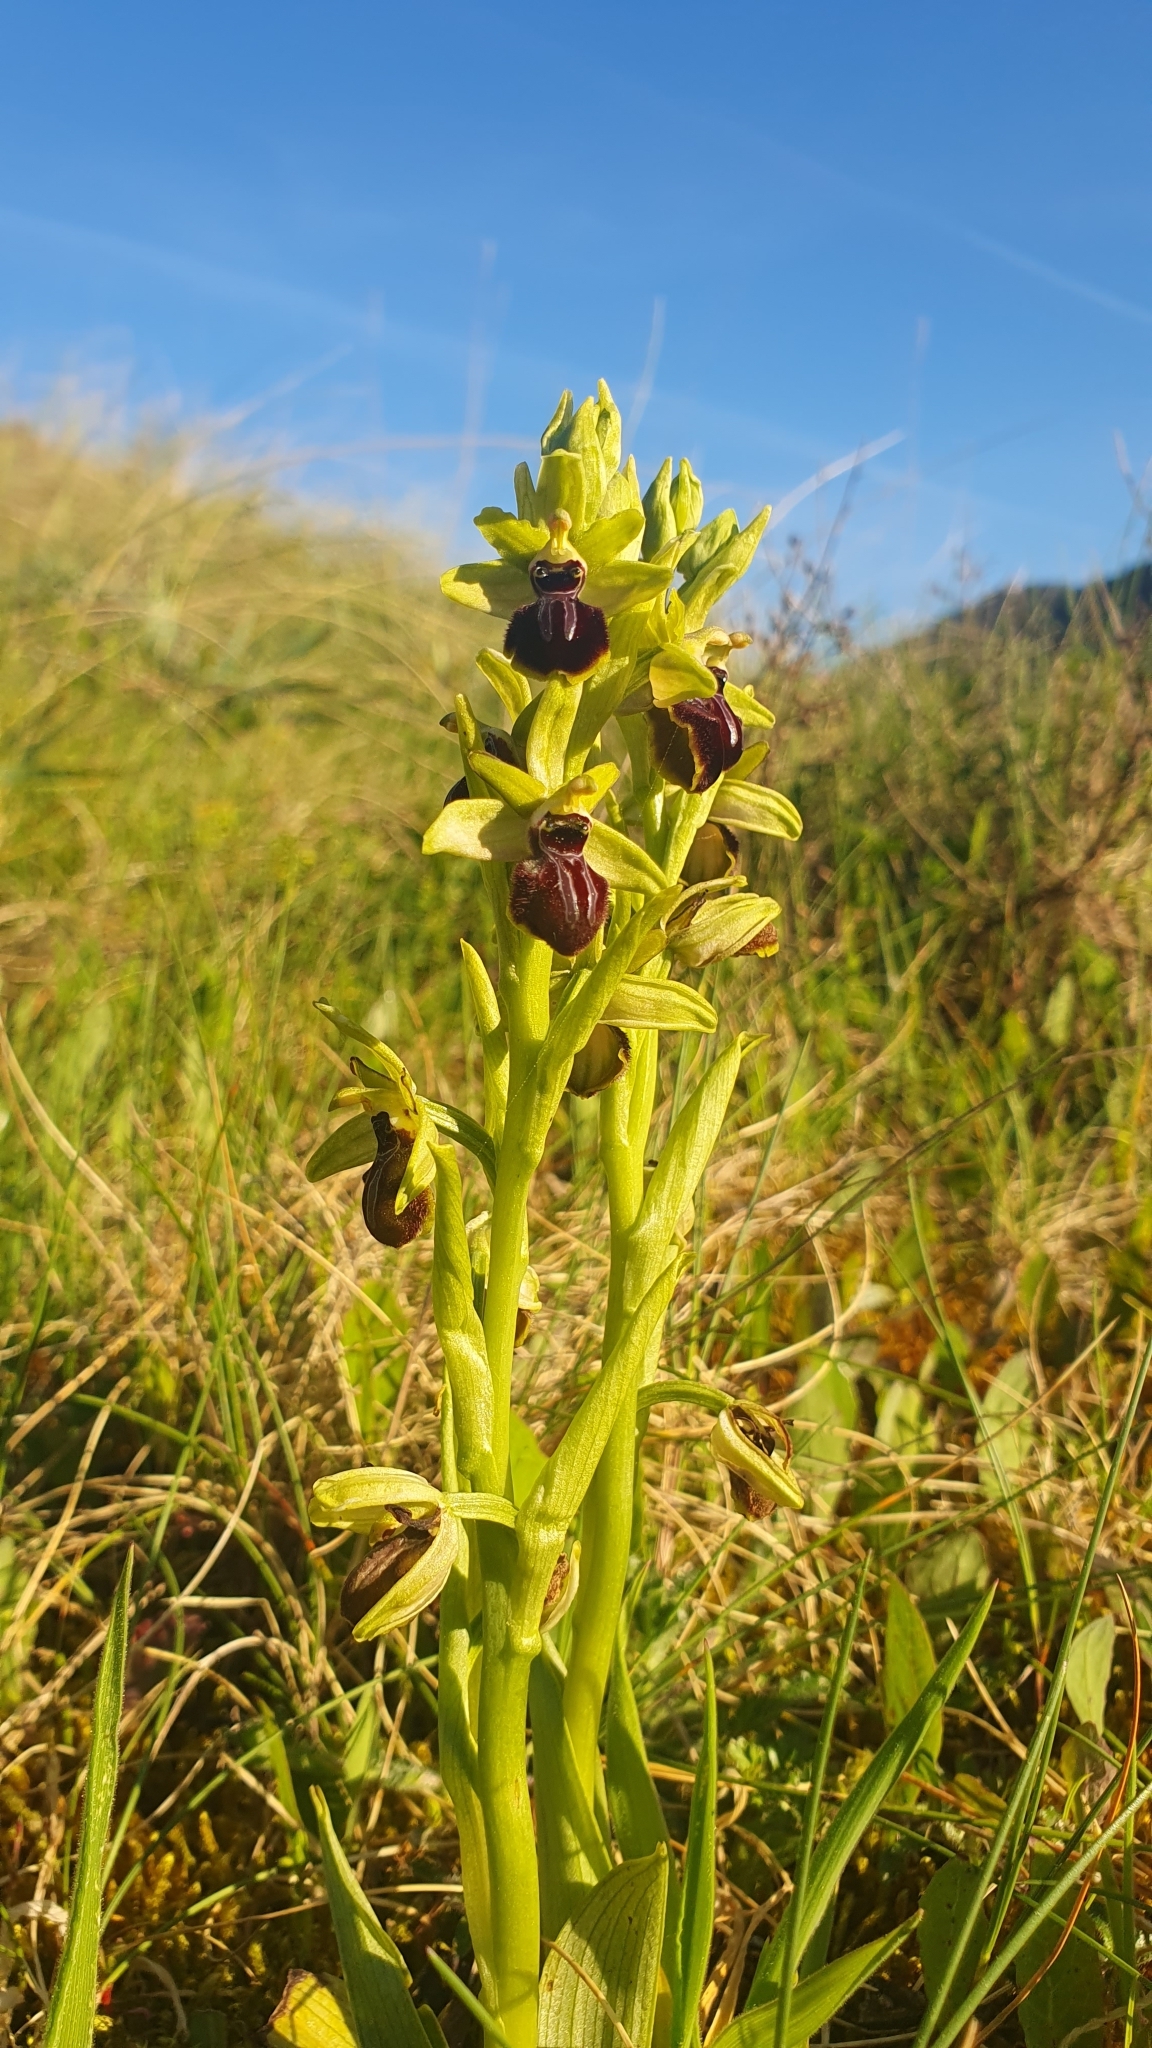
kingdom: Plantae
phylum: Tracheophyta
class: Liliopsida
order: Asparagales
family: Orchidaceae
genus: Ophrys
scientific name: Ophrys sphegodes
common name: Early spider-orchid
